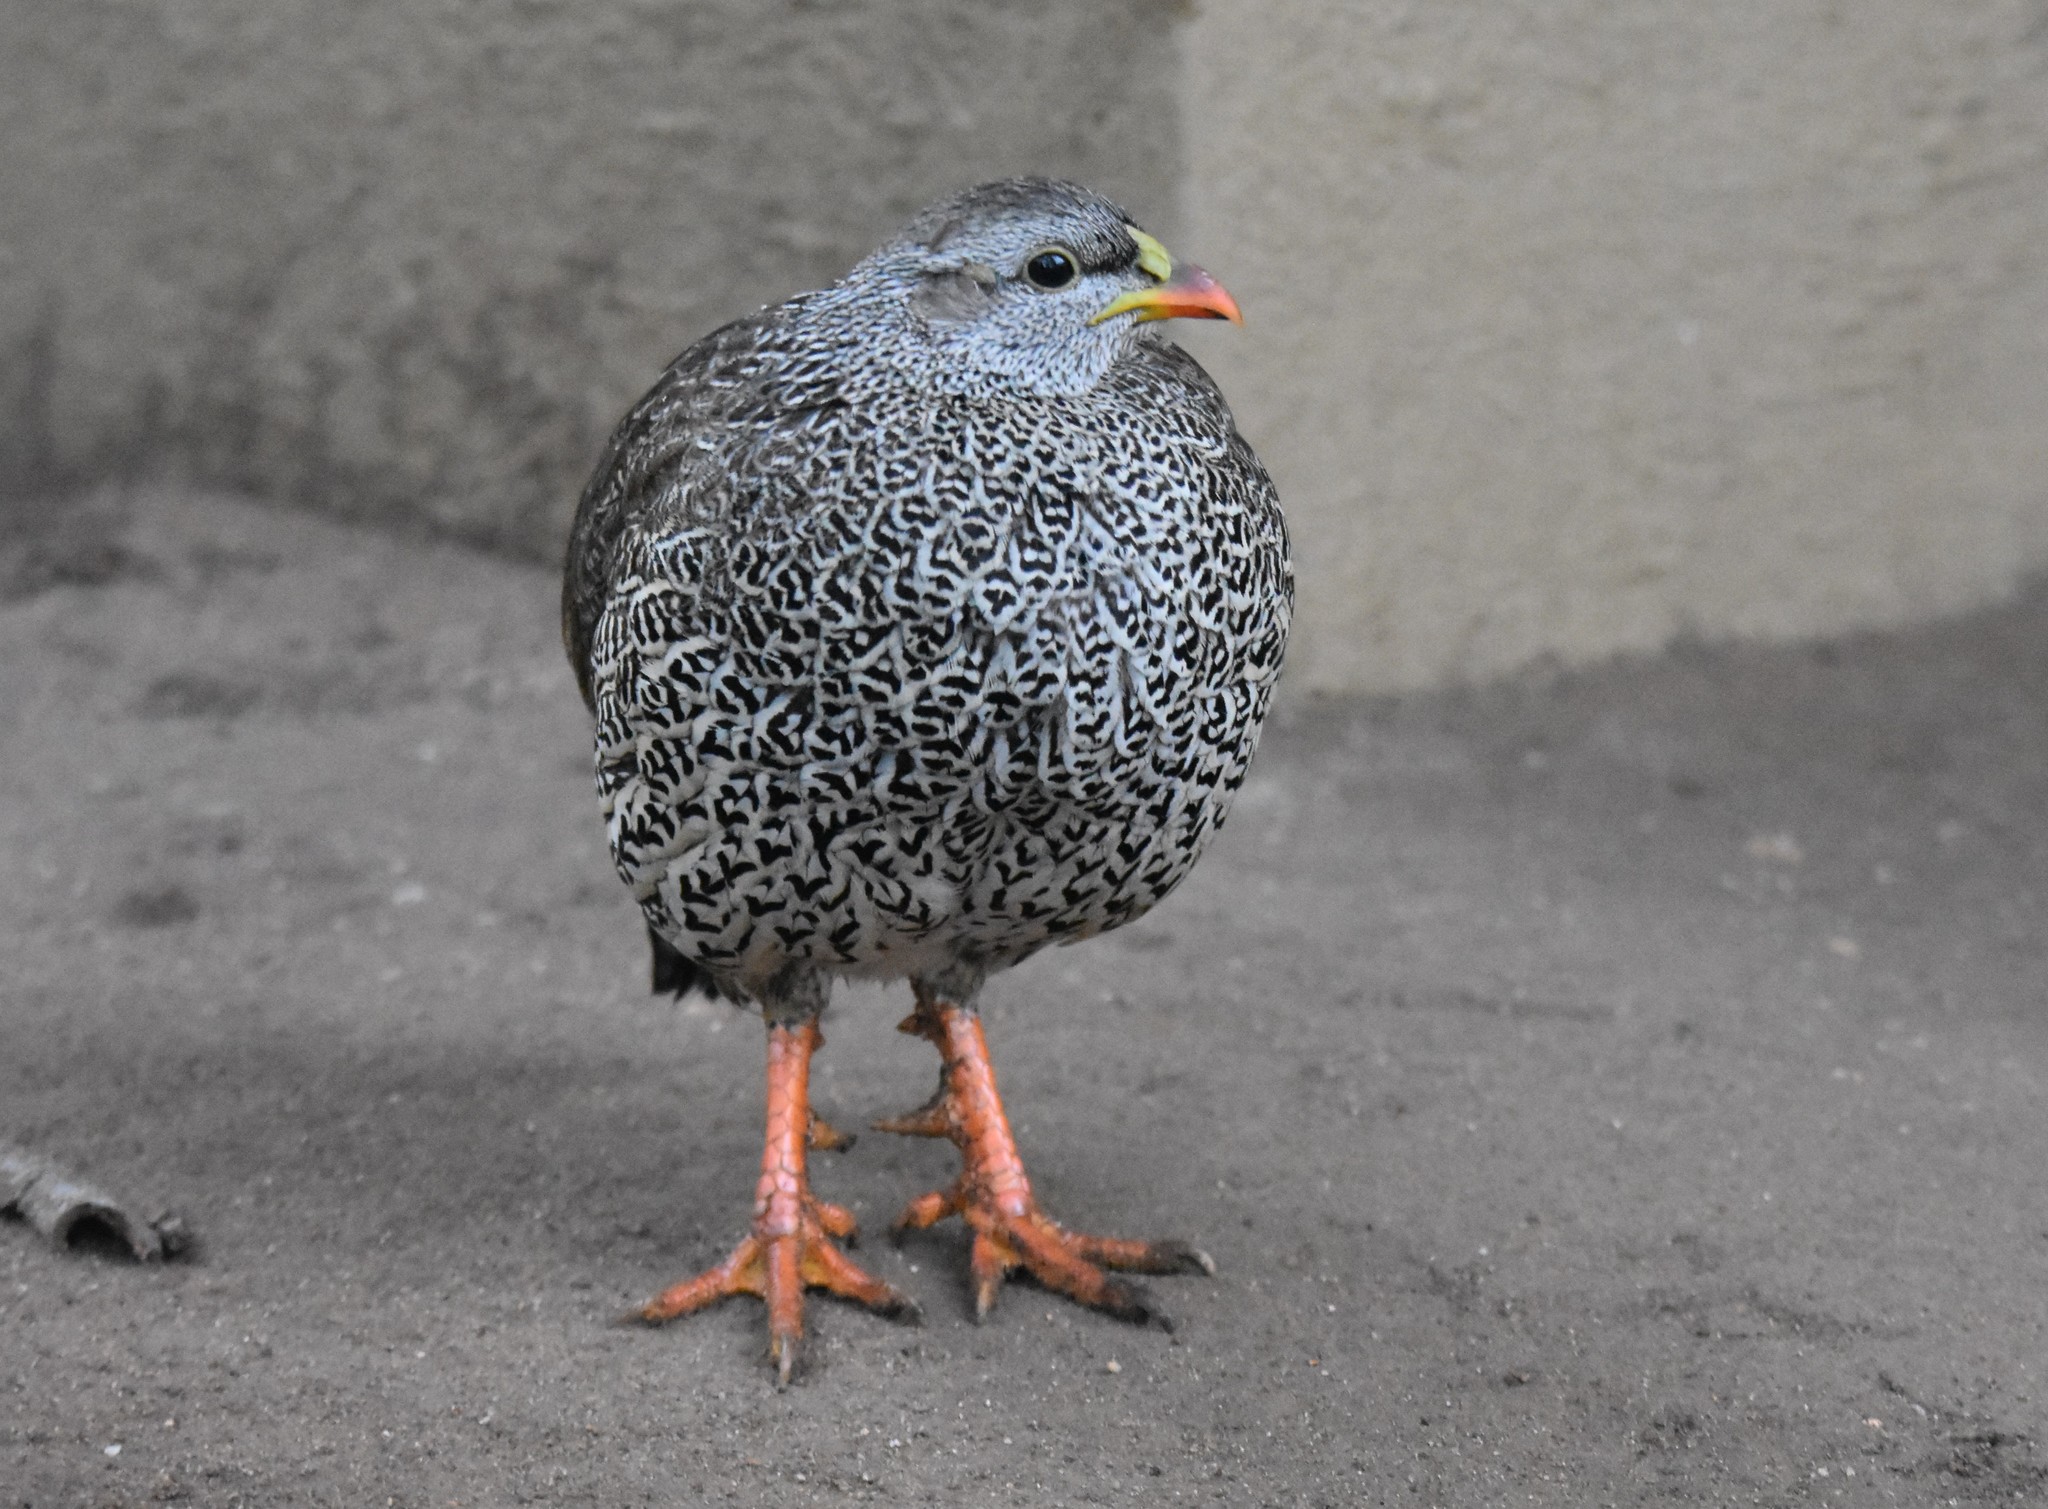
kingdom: Animalia
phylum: Chordata
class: Aves
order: Galliformes
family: Phasianidae
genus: Pternistis
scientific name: Pternistis natalensis
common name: Natal spurfowl
